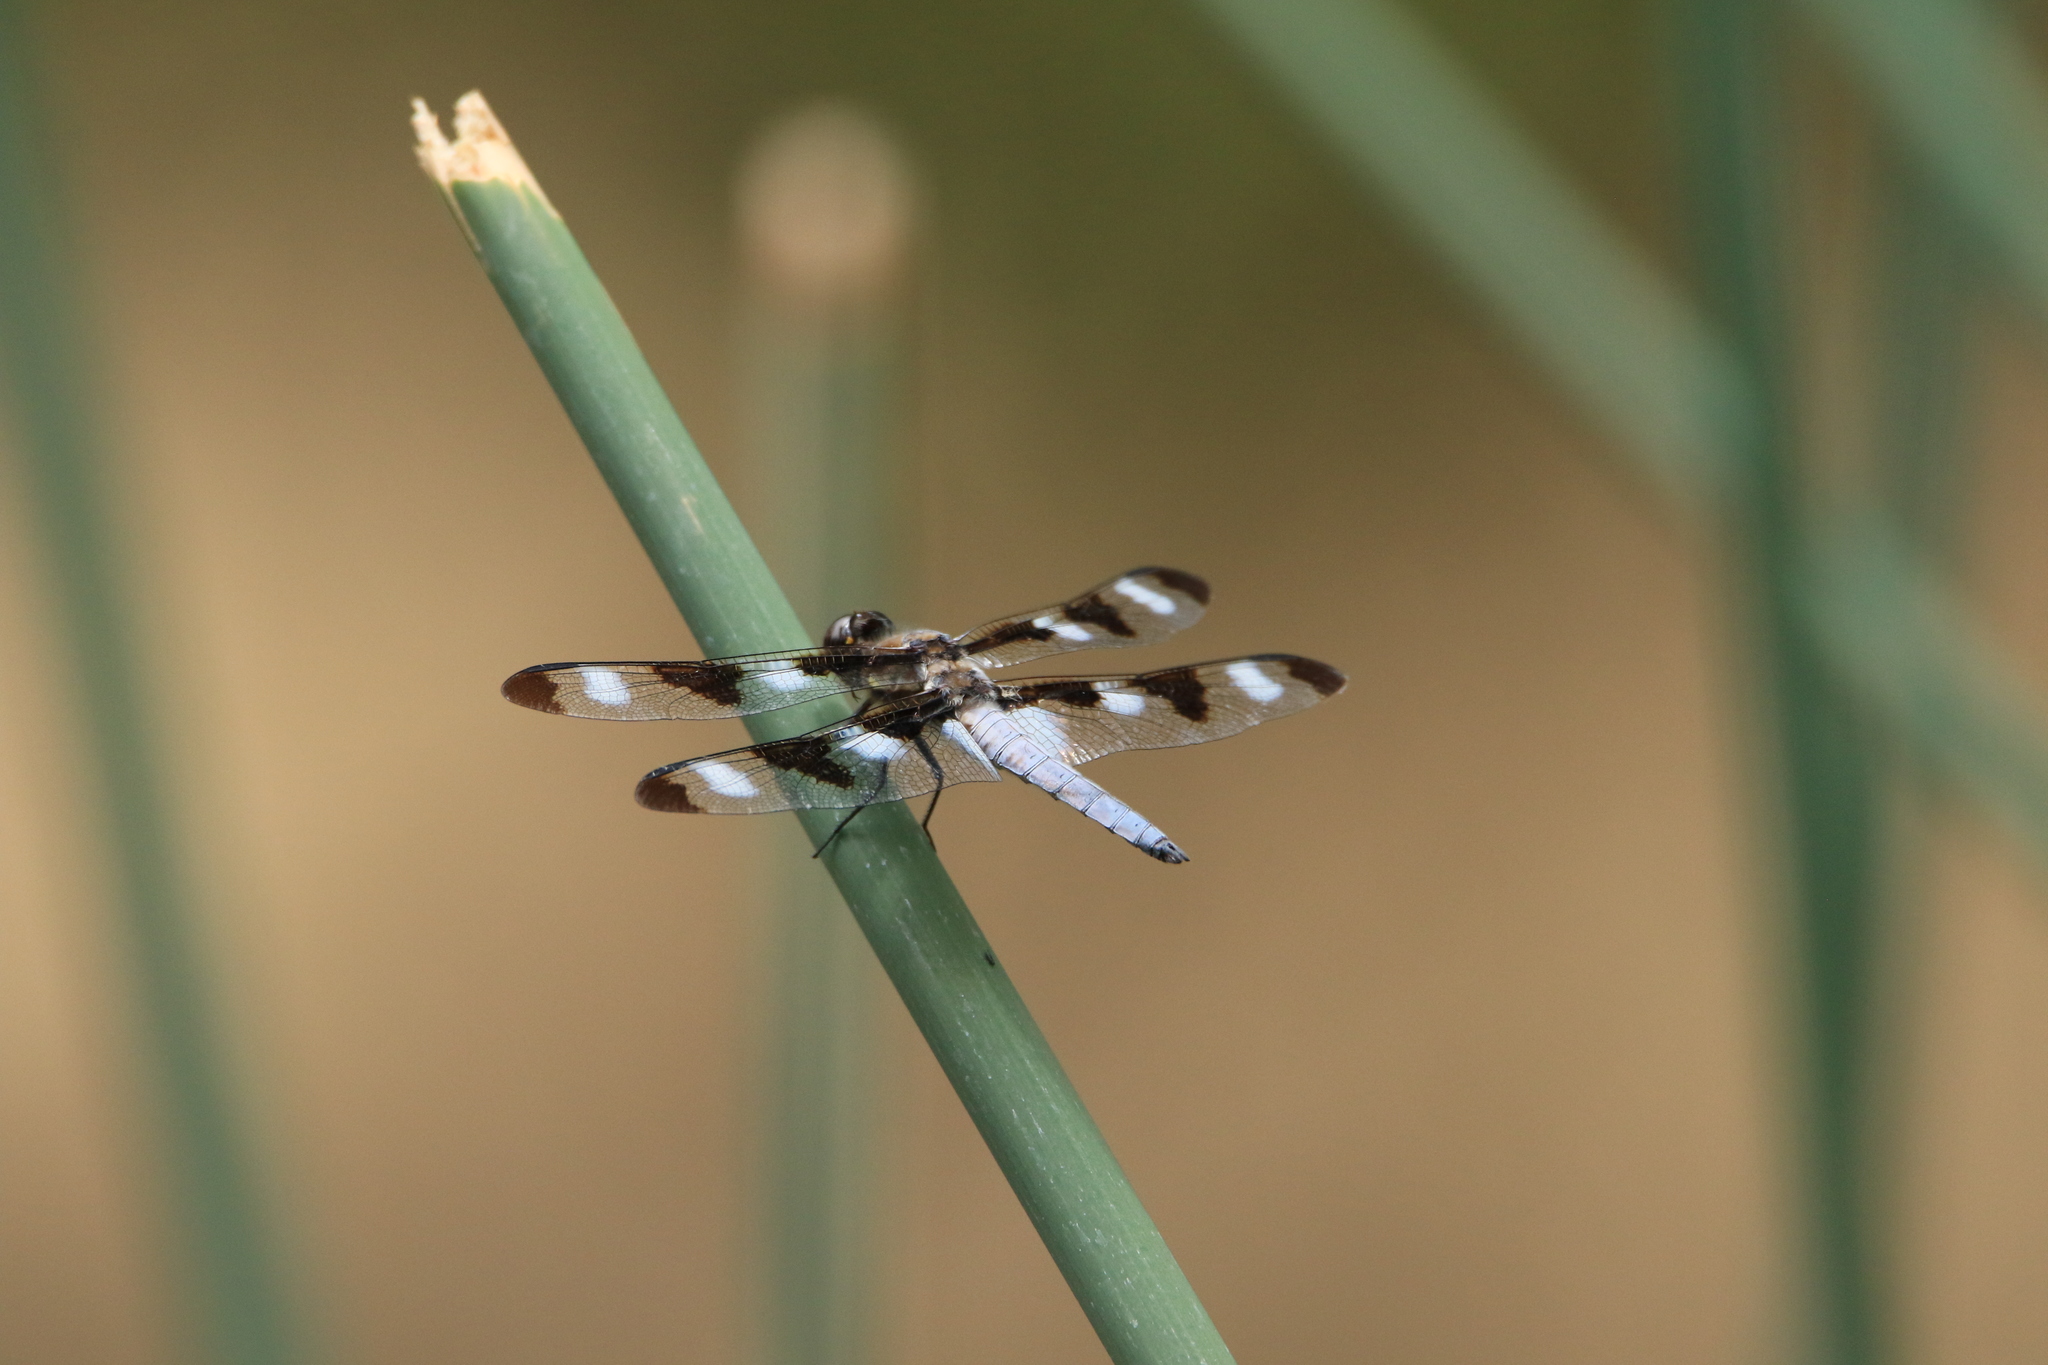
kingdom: Animalia
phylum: Arthropoda
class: Insecta
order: Odonata
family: Libellulidae
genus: Libellula
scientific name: Libellula pulchella
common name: Twelve-spotted skimmer
